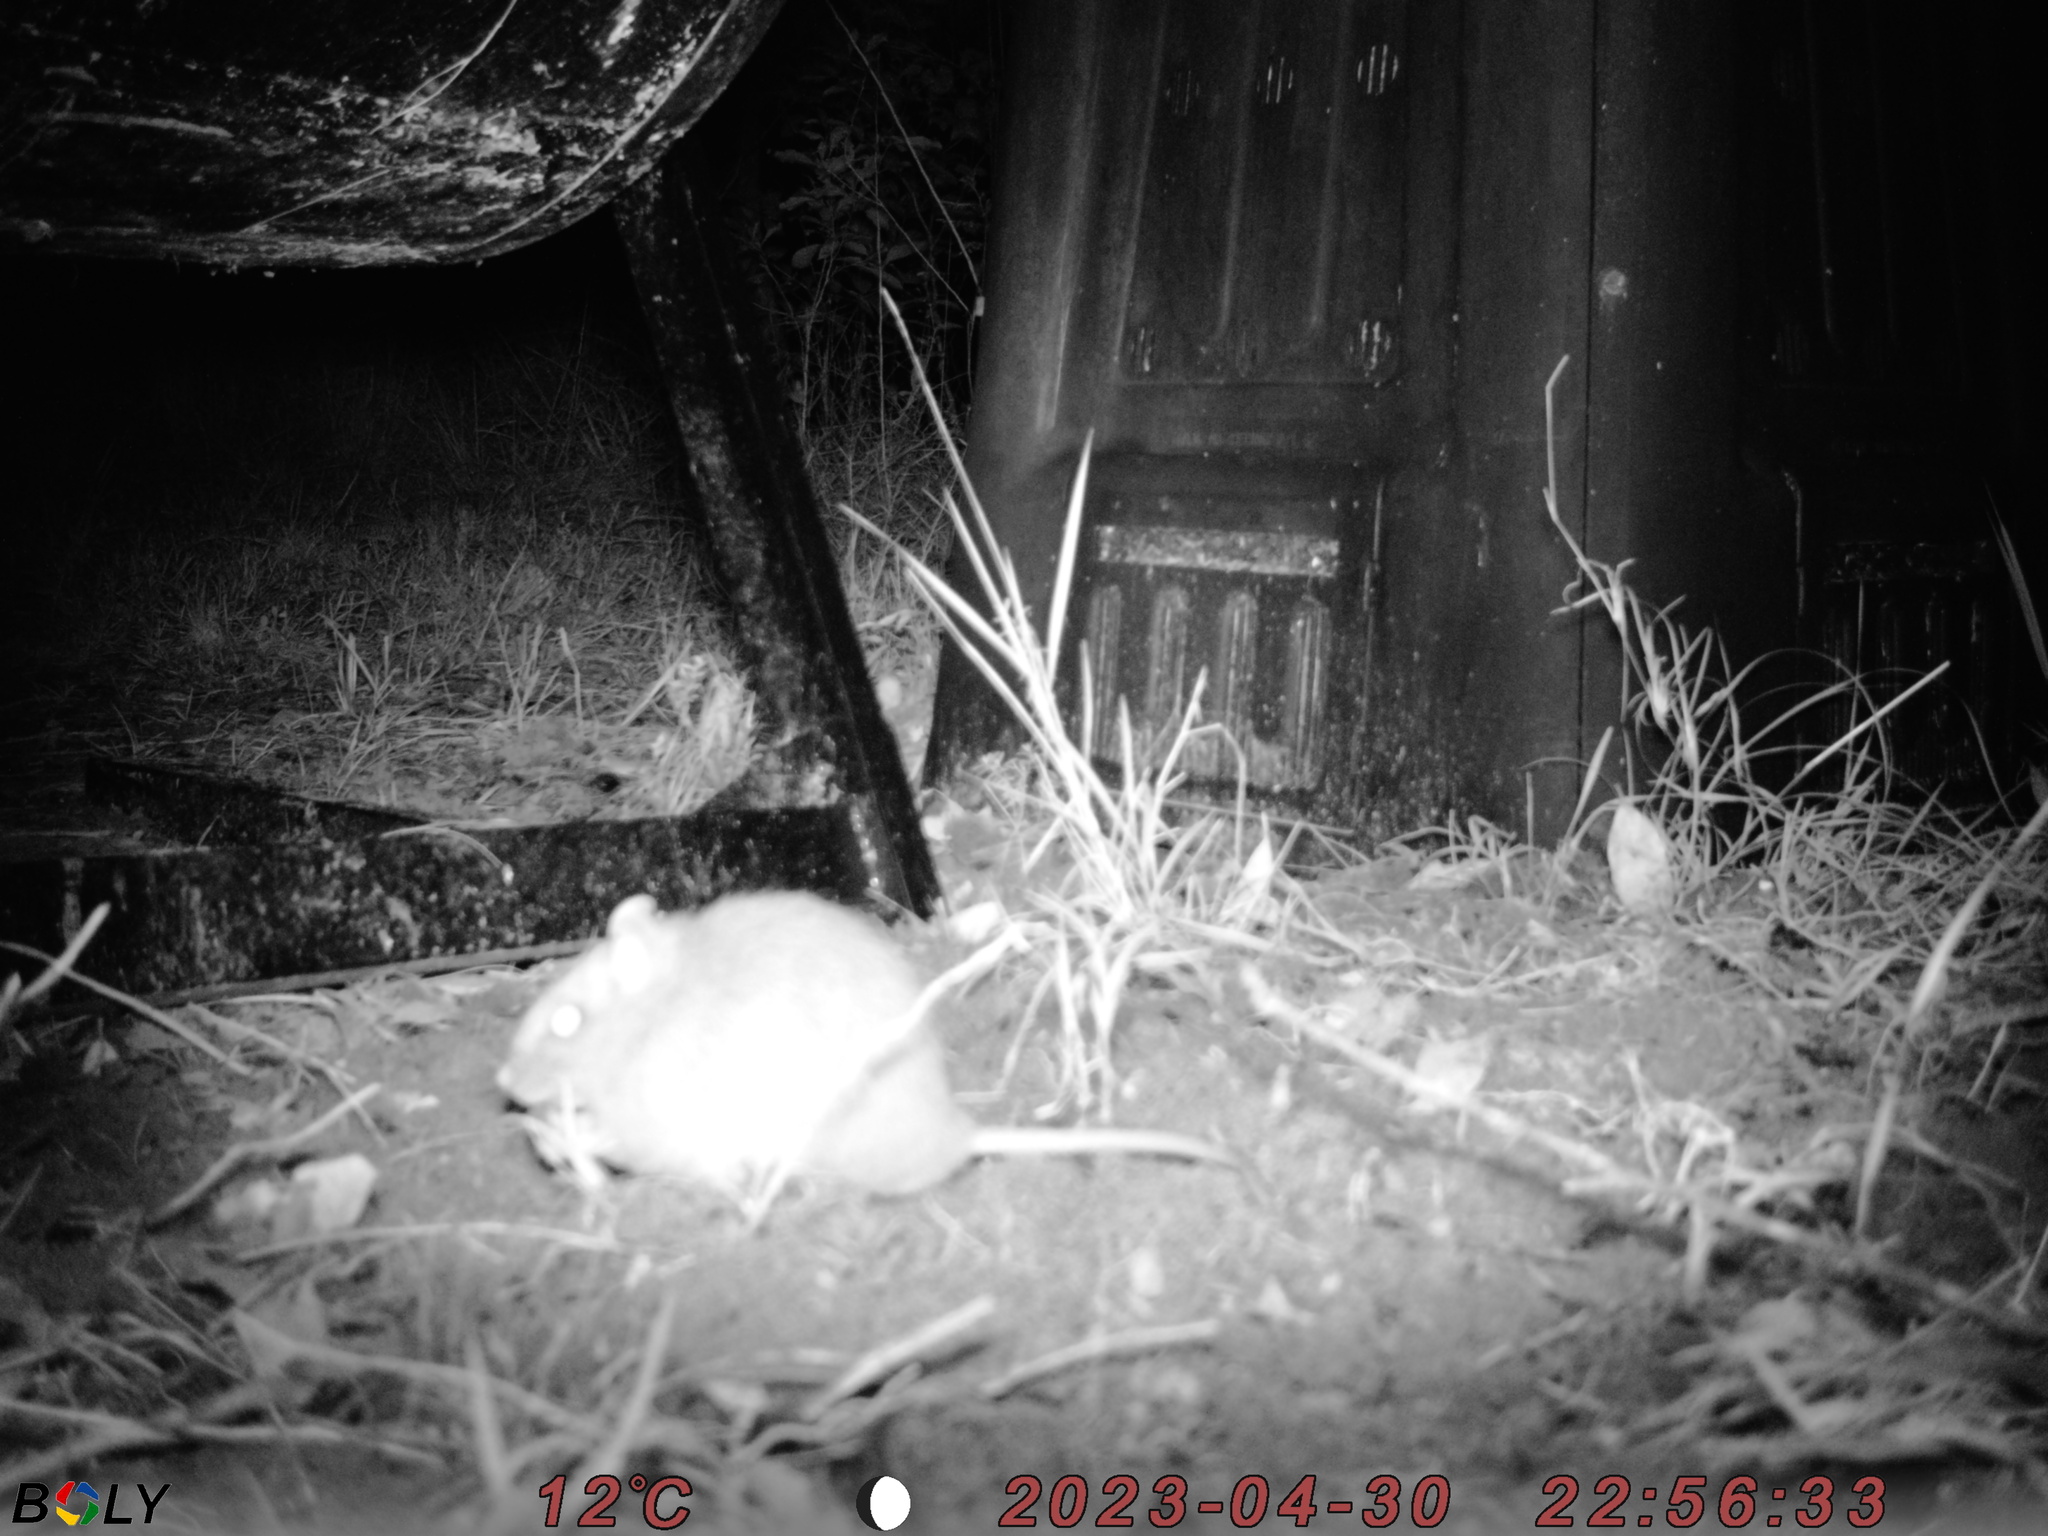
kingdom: Animalia
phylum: Chordata
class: Mammalia
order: Rodentia
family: Muridae
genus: Rattus
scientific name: Rattus fuscipes
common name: Australian bush rat
